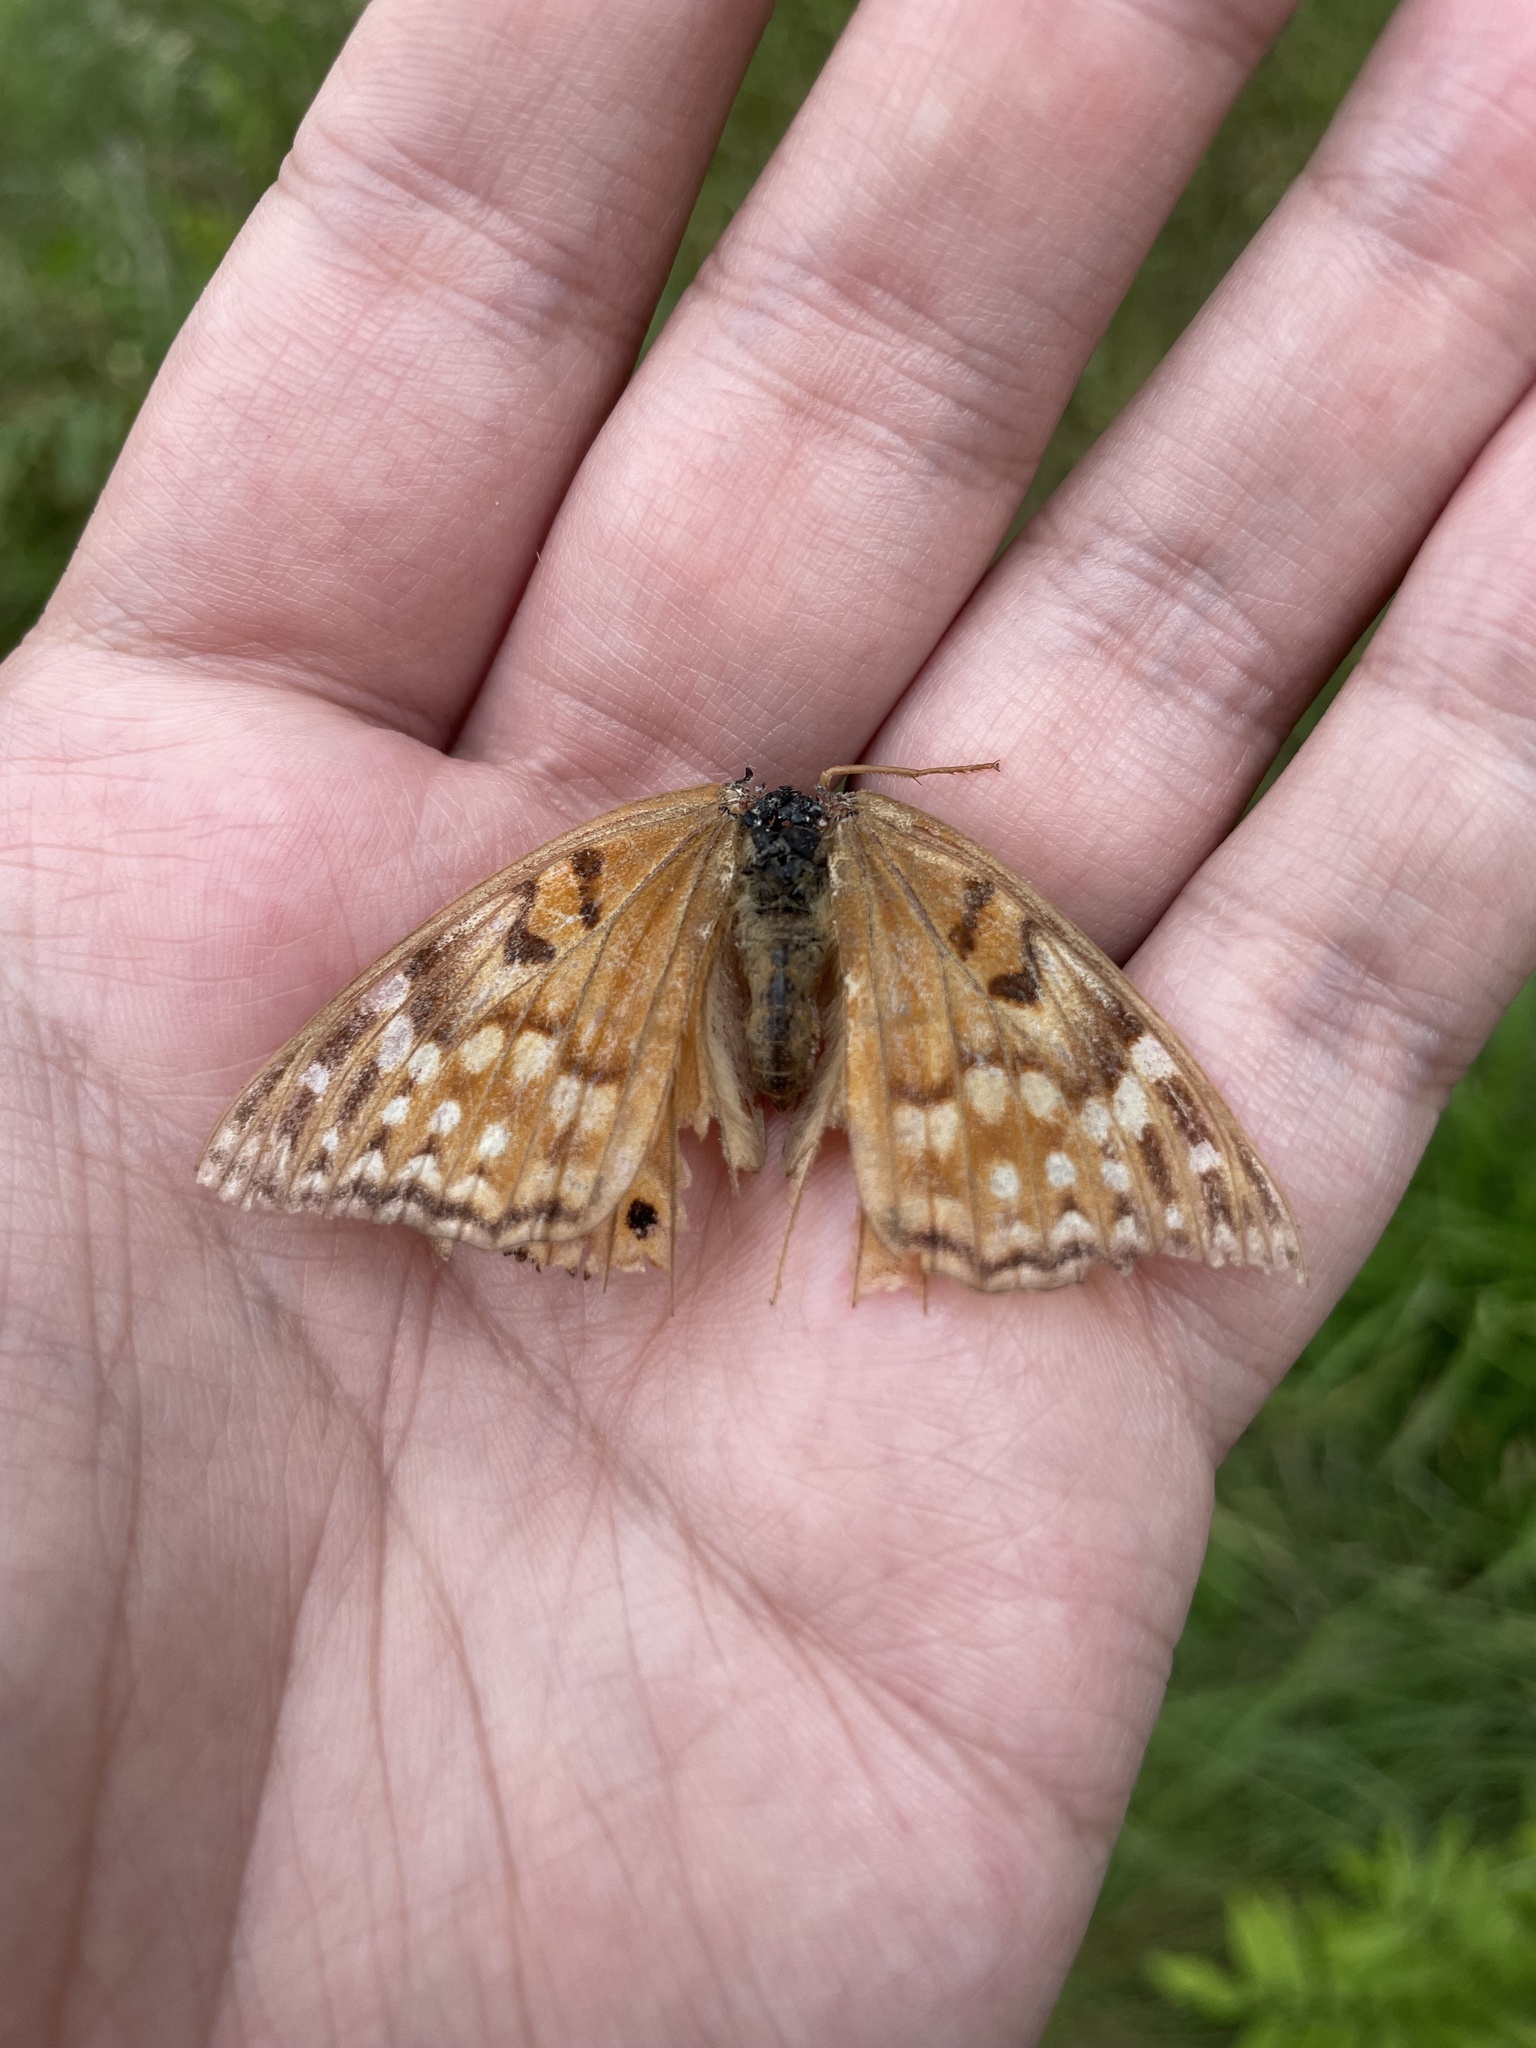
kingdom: Animalia
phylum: Arthropoda
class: Insecta
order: Lepidoptera
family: Nymphalidae
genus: Asterocampa
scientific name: Asterocampa clyton
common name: Tawny emperor
